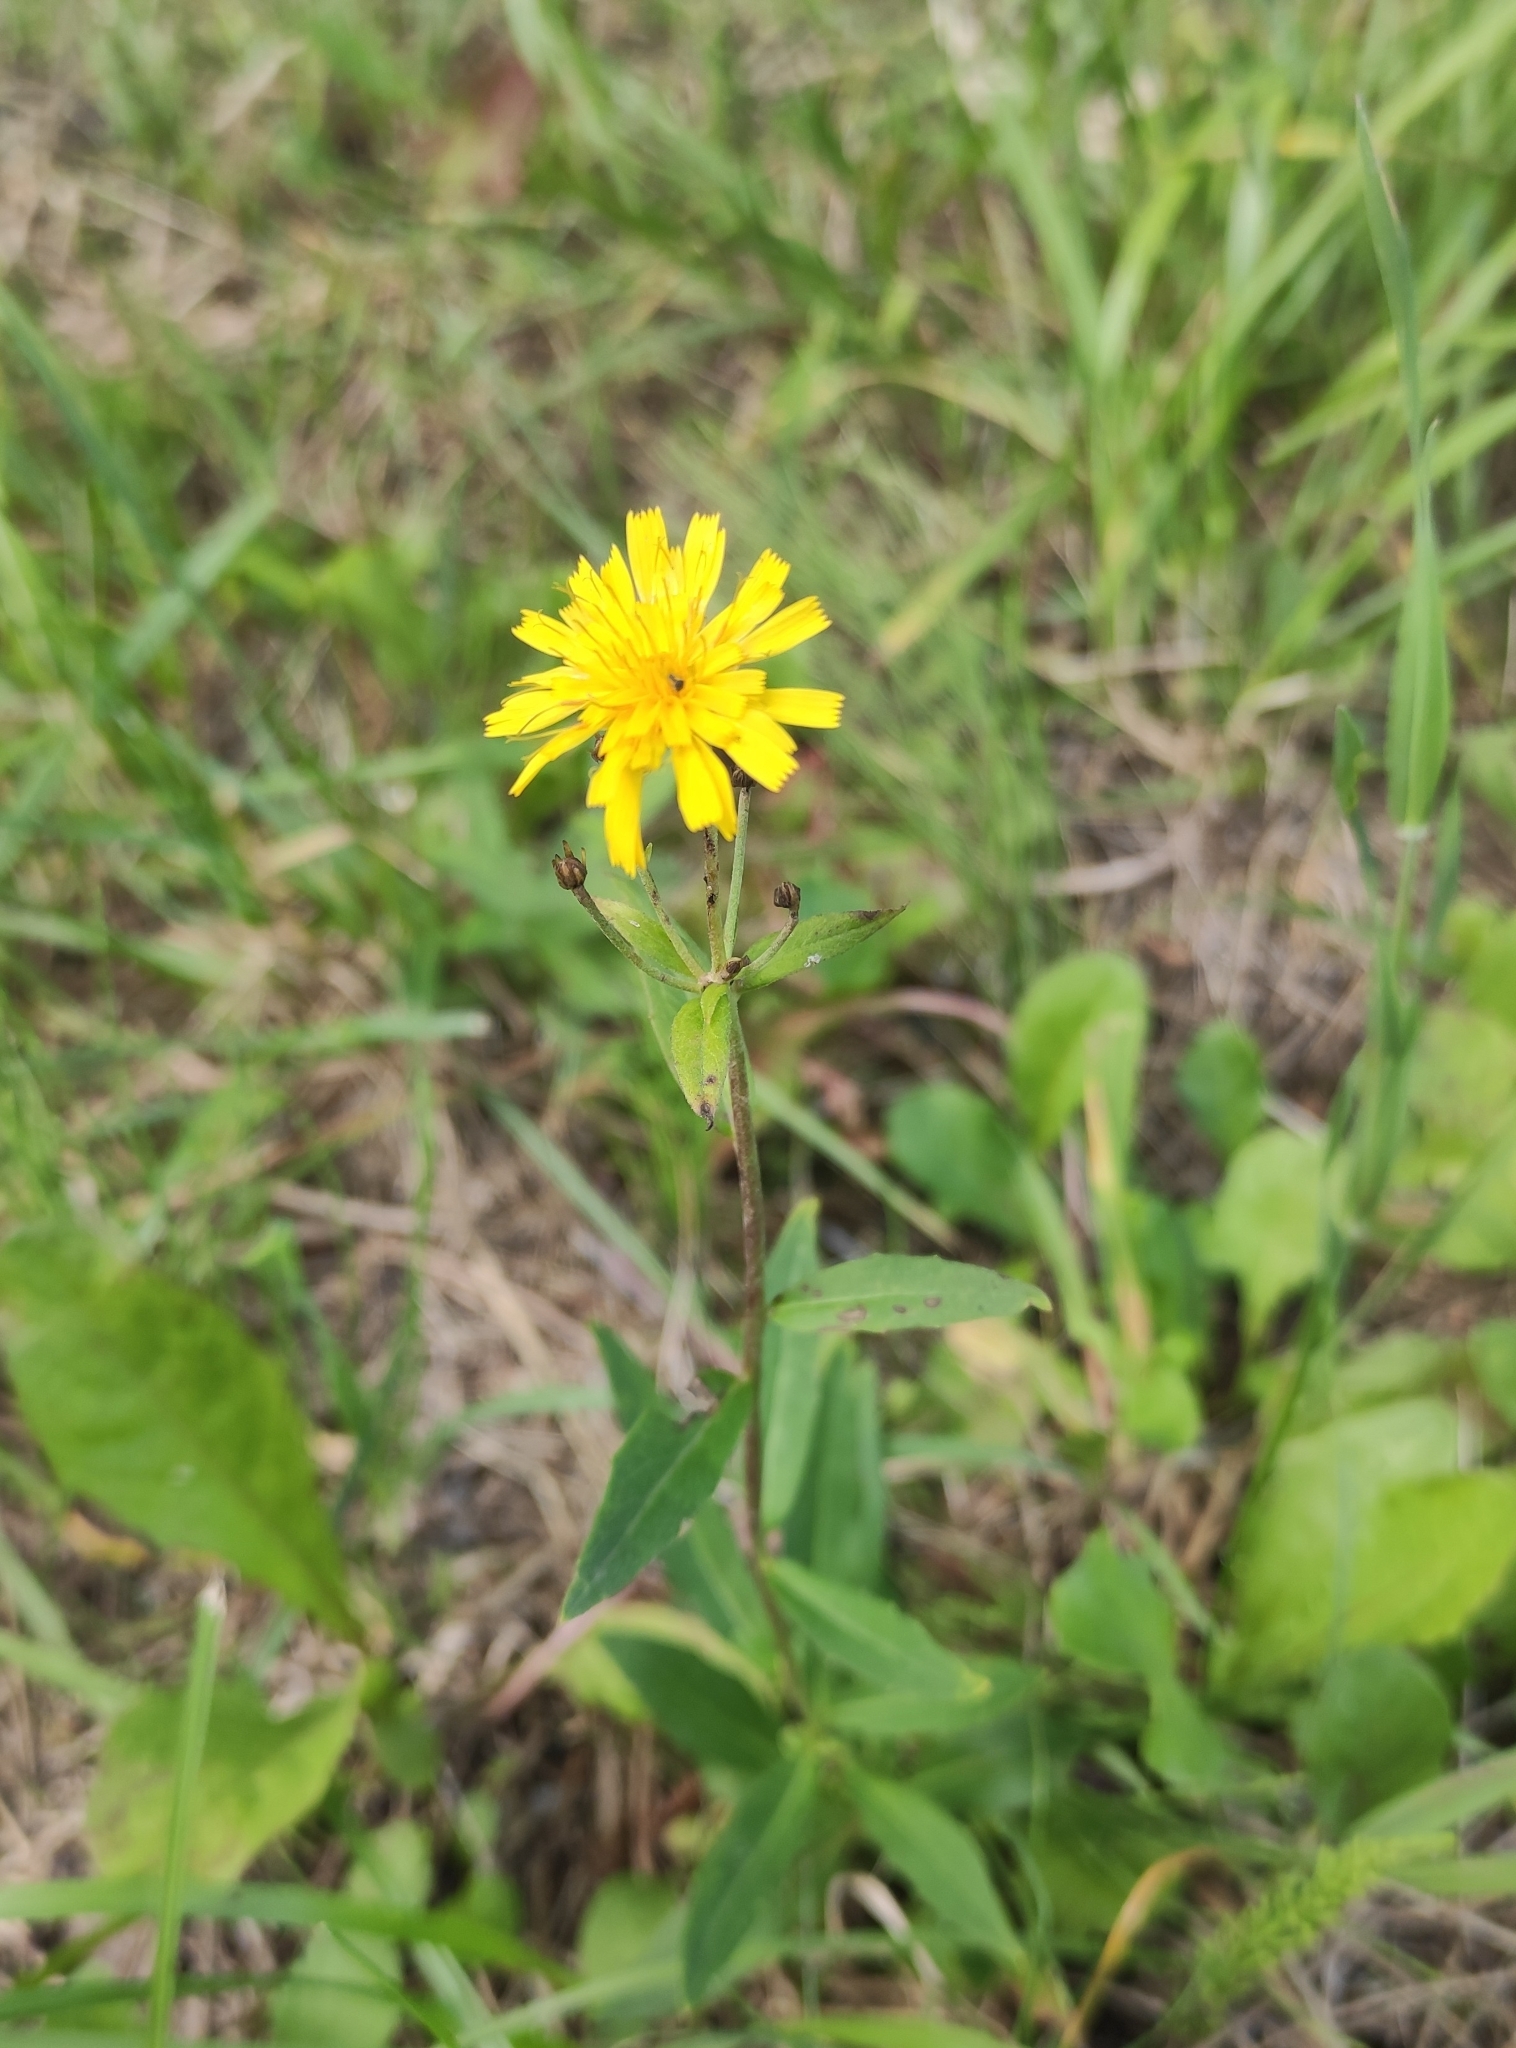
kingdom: Plantae
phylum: Tracheophyta
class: Magnoliopsida
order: Asterales
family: Asteraceae
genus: Hieracium
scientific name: Hieracium umbellatum
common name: Northern hawkweed
